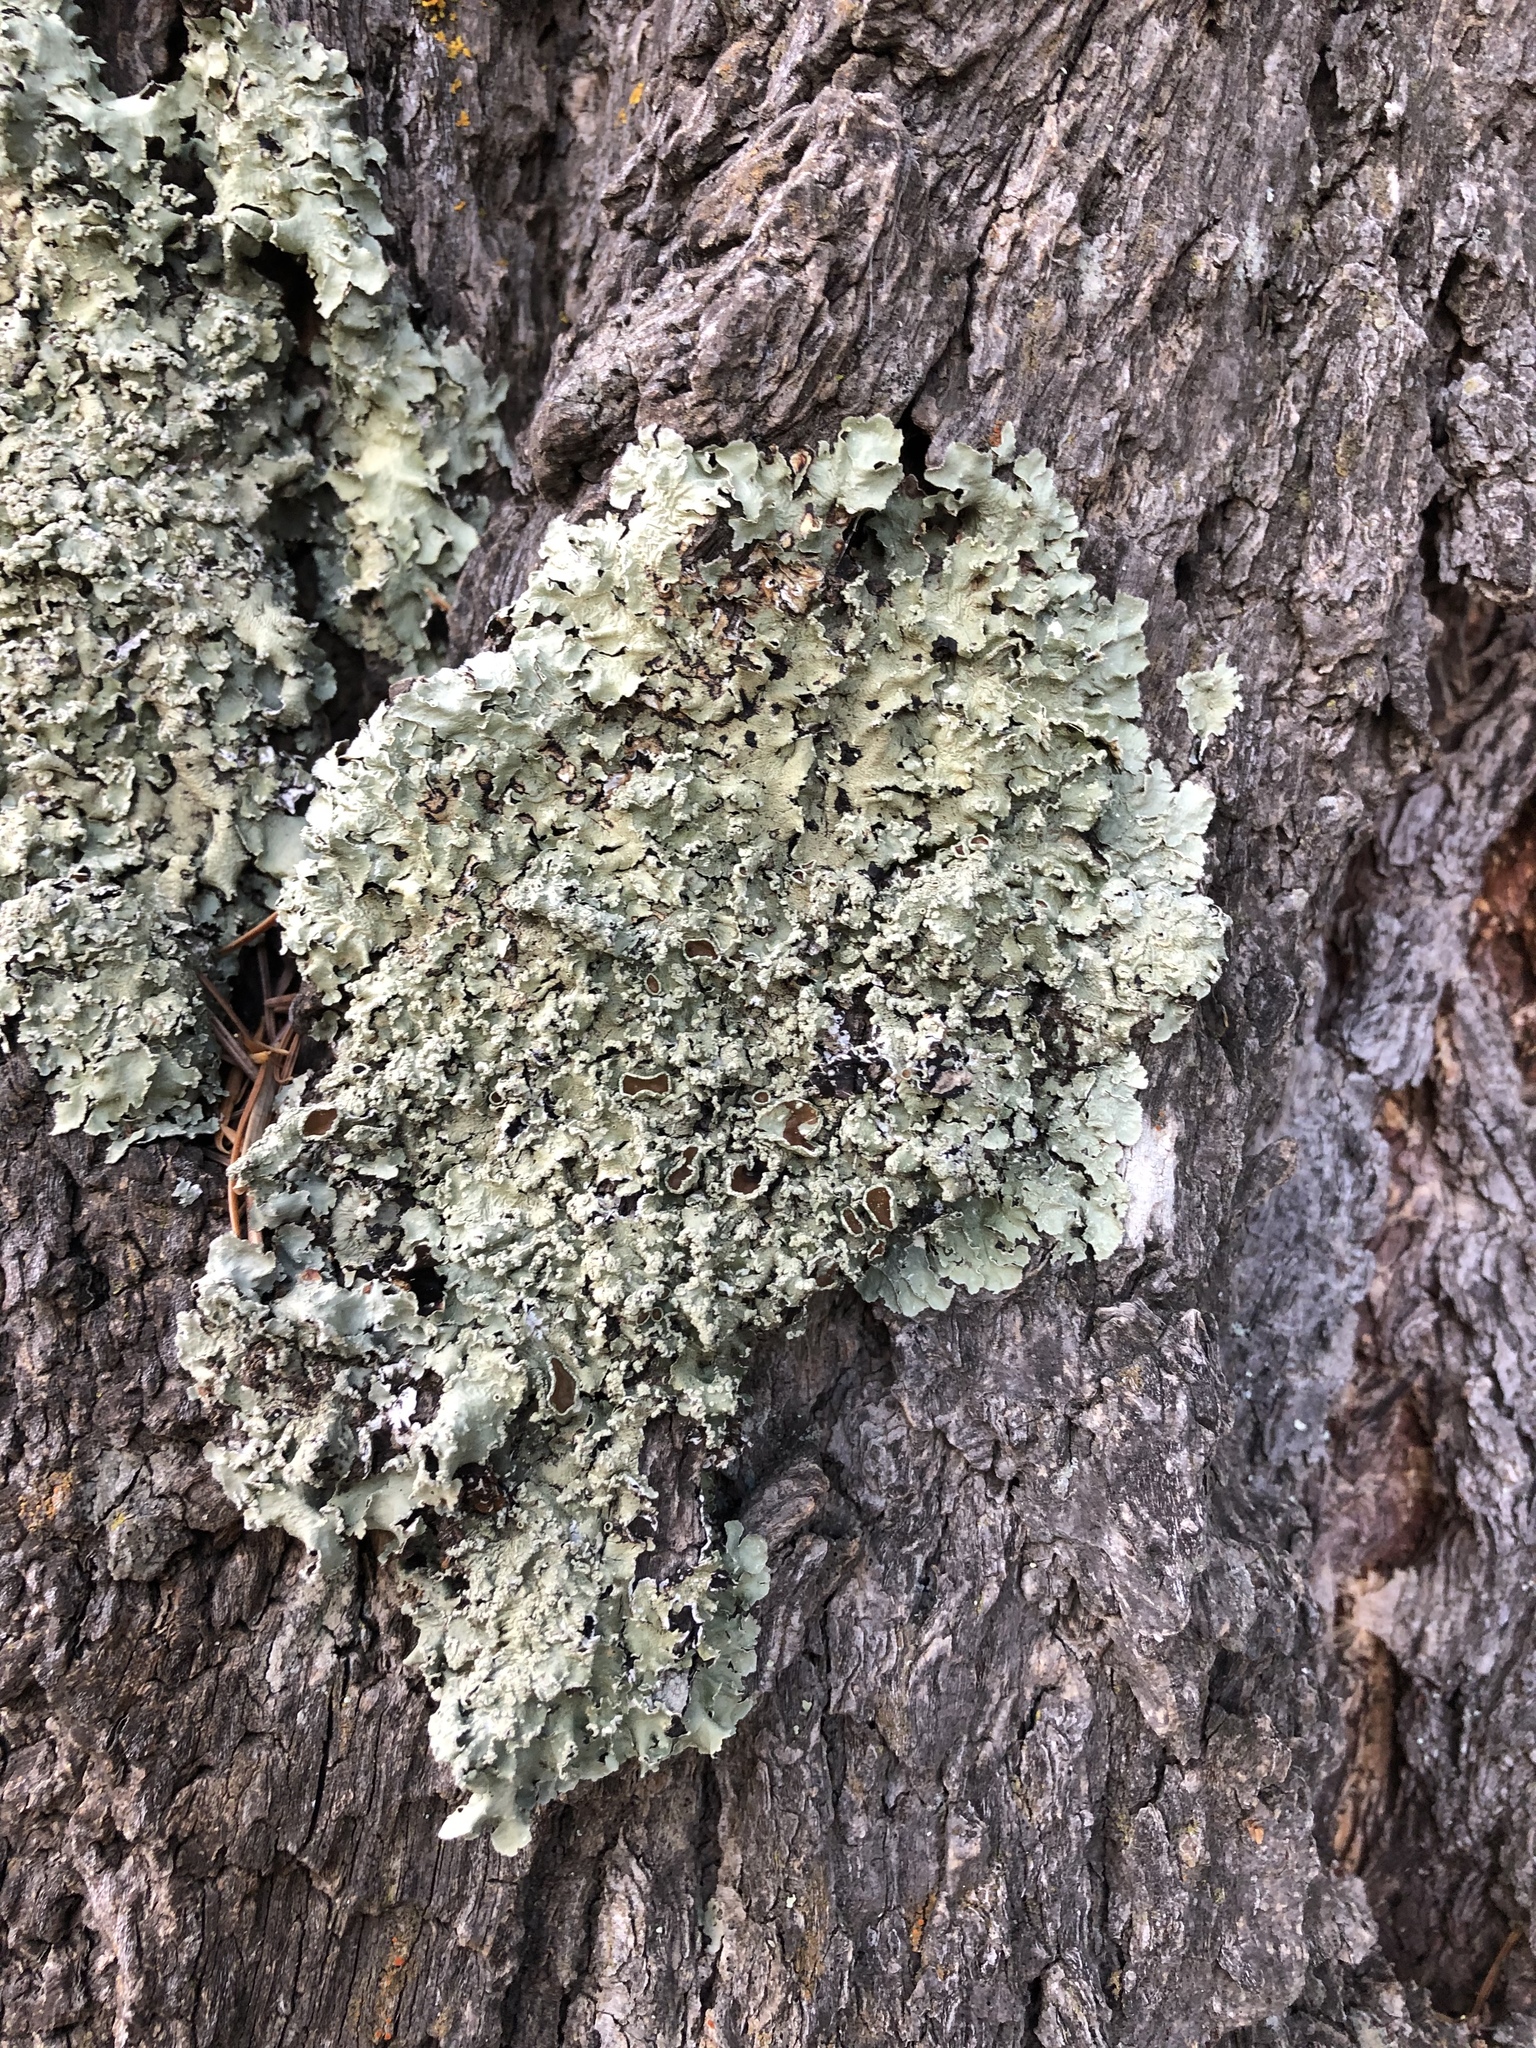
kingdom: Fungi
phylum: Ascomycota
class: Lecanoromycetes
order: Lecanorales
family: Parmeliaceae
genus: Flavopunctelia
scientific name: Flavopunctelia soredica
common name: Powder-edged speckled greenshield
